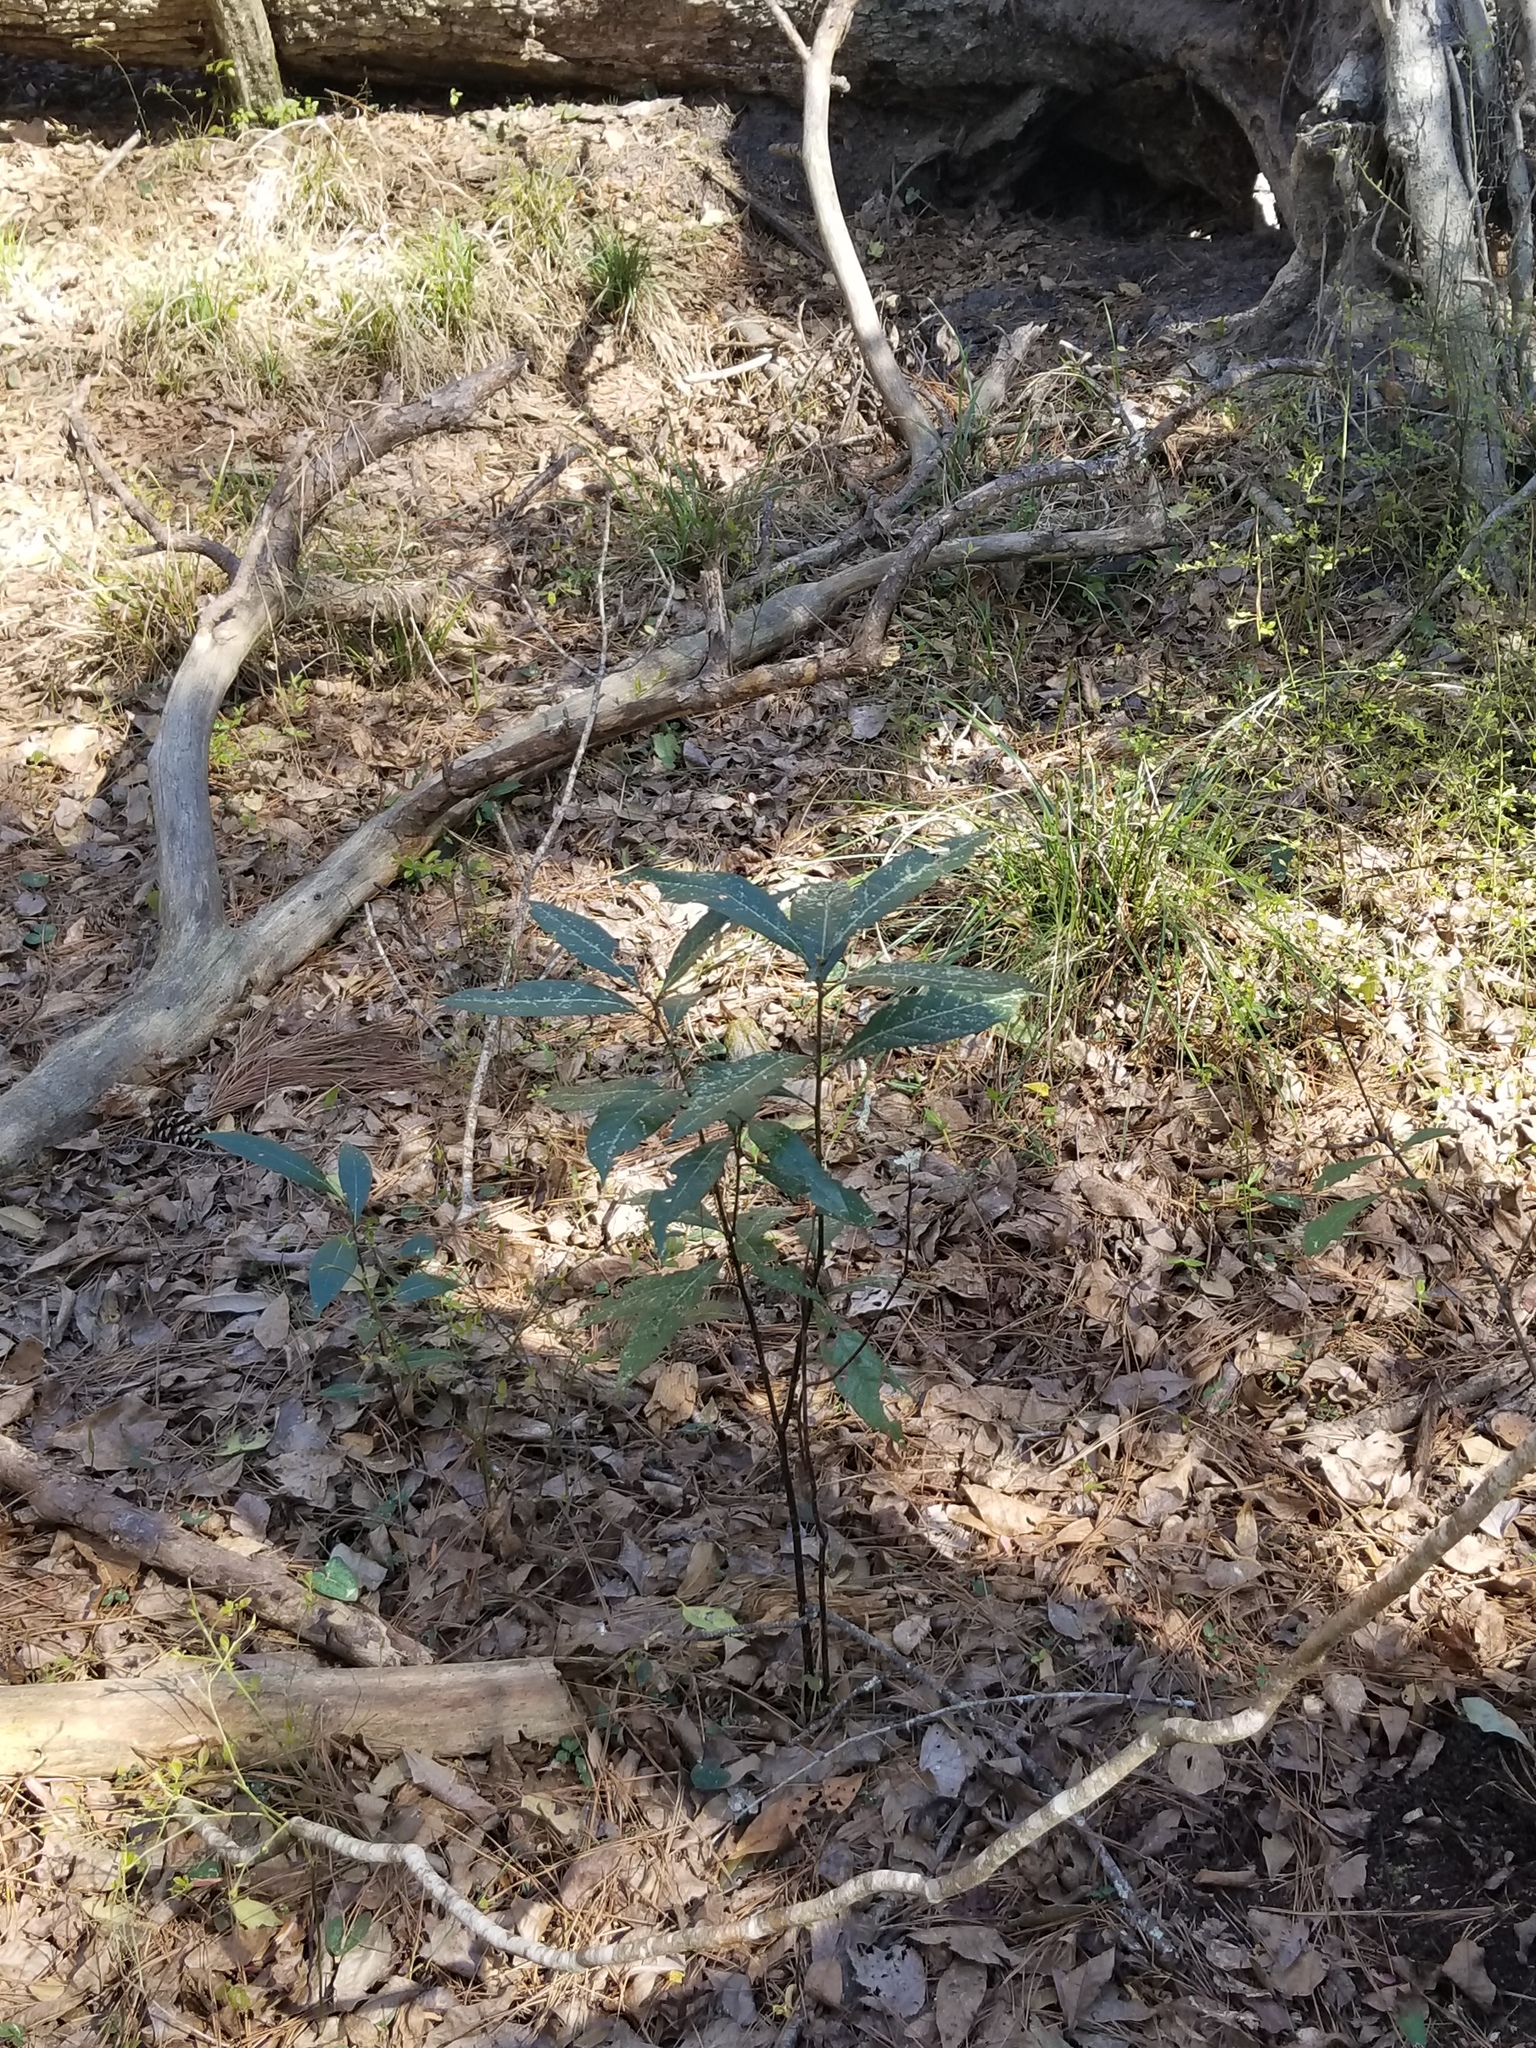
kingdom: Plantae
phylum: Tracheophyta
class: Magnoliopsida
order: Laurales
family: Lauraceae
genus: Persea
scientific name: Persea palustris
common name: Swampbay
